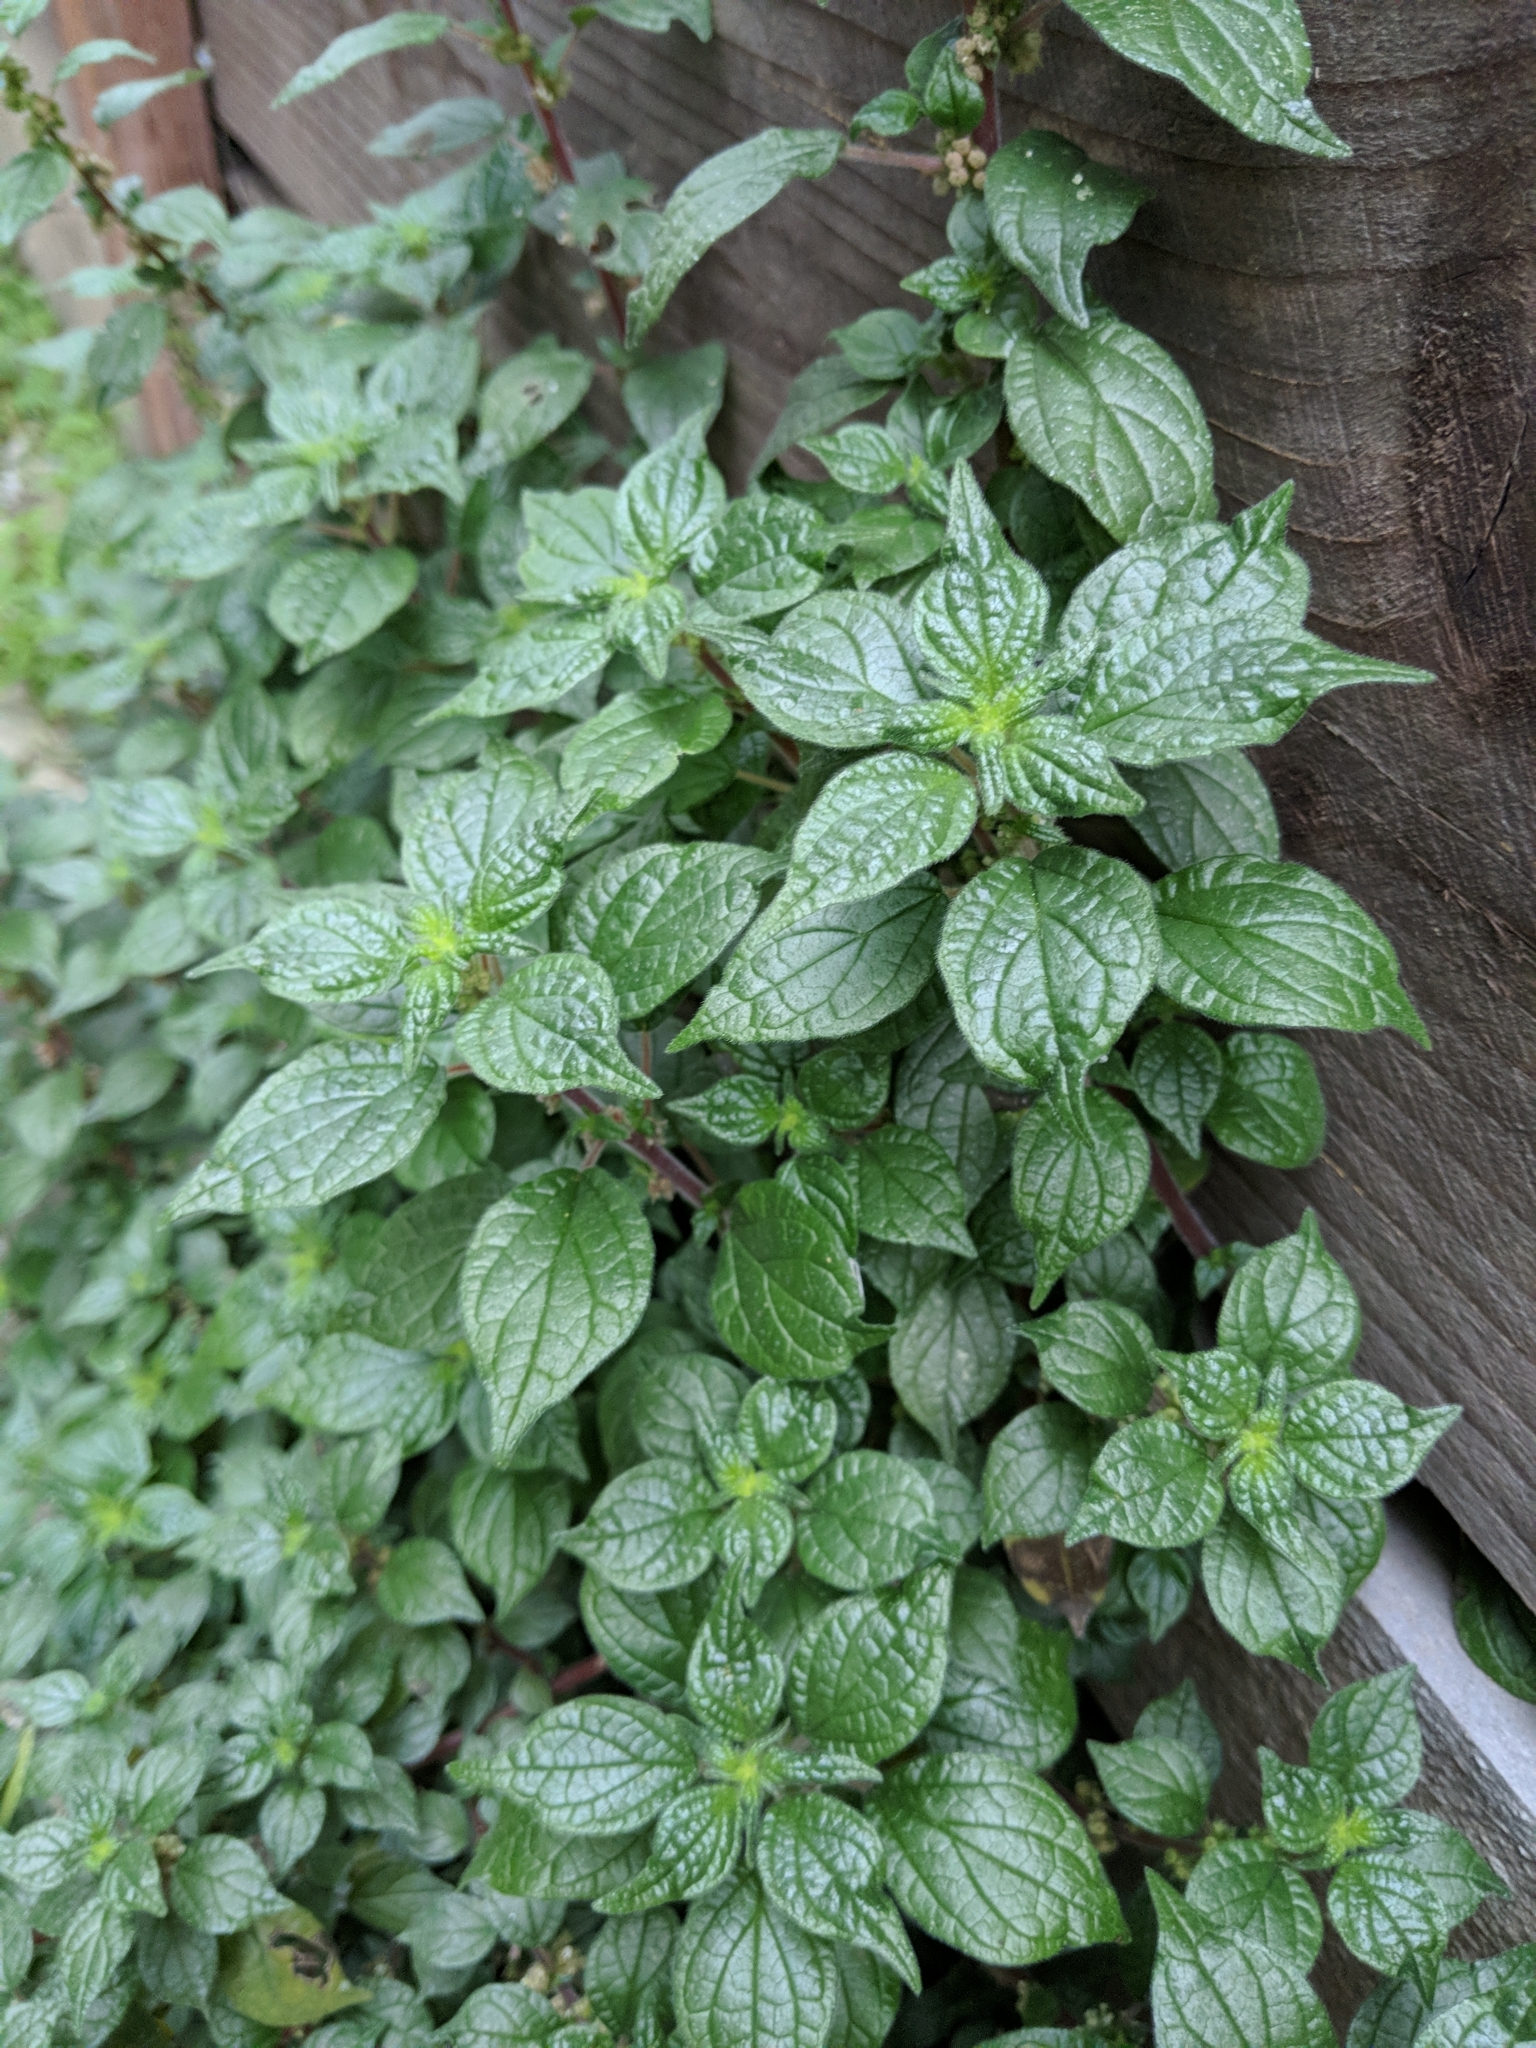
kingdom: Plantae
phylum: Tracheophyta
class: Magnoliopsida
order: Rosales
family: Urticaceae
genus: Parietaria
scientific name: Parietaria judaica
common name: Pellitory-of-the-wall
